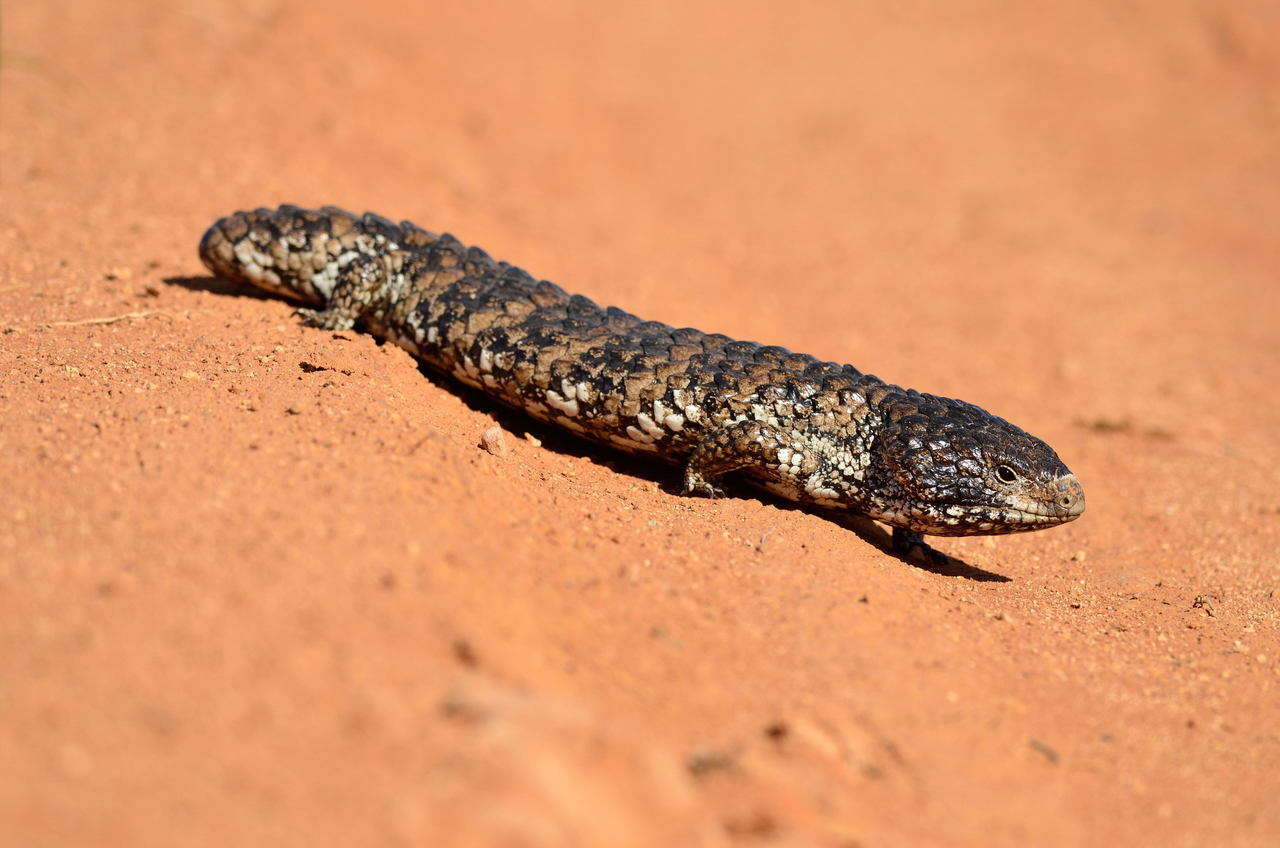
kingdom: Animalia
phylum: Chordata
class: Squamata
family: Scincidae
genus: Tiliqua
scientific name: Tiliqua rugosa
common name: Pinecone lizard
